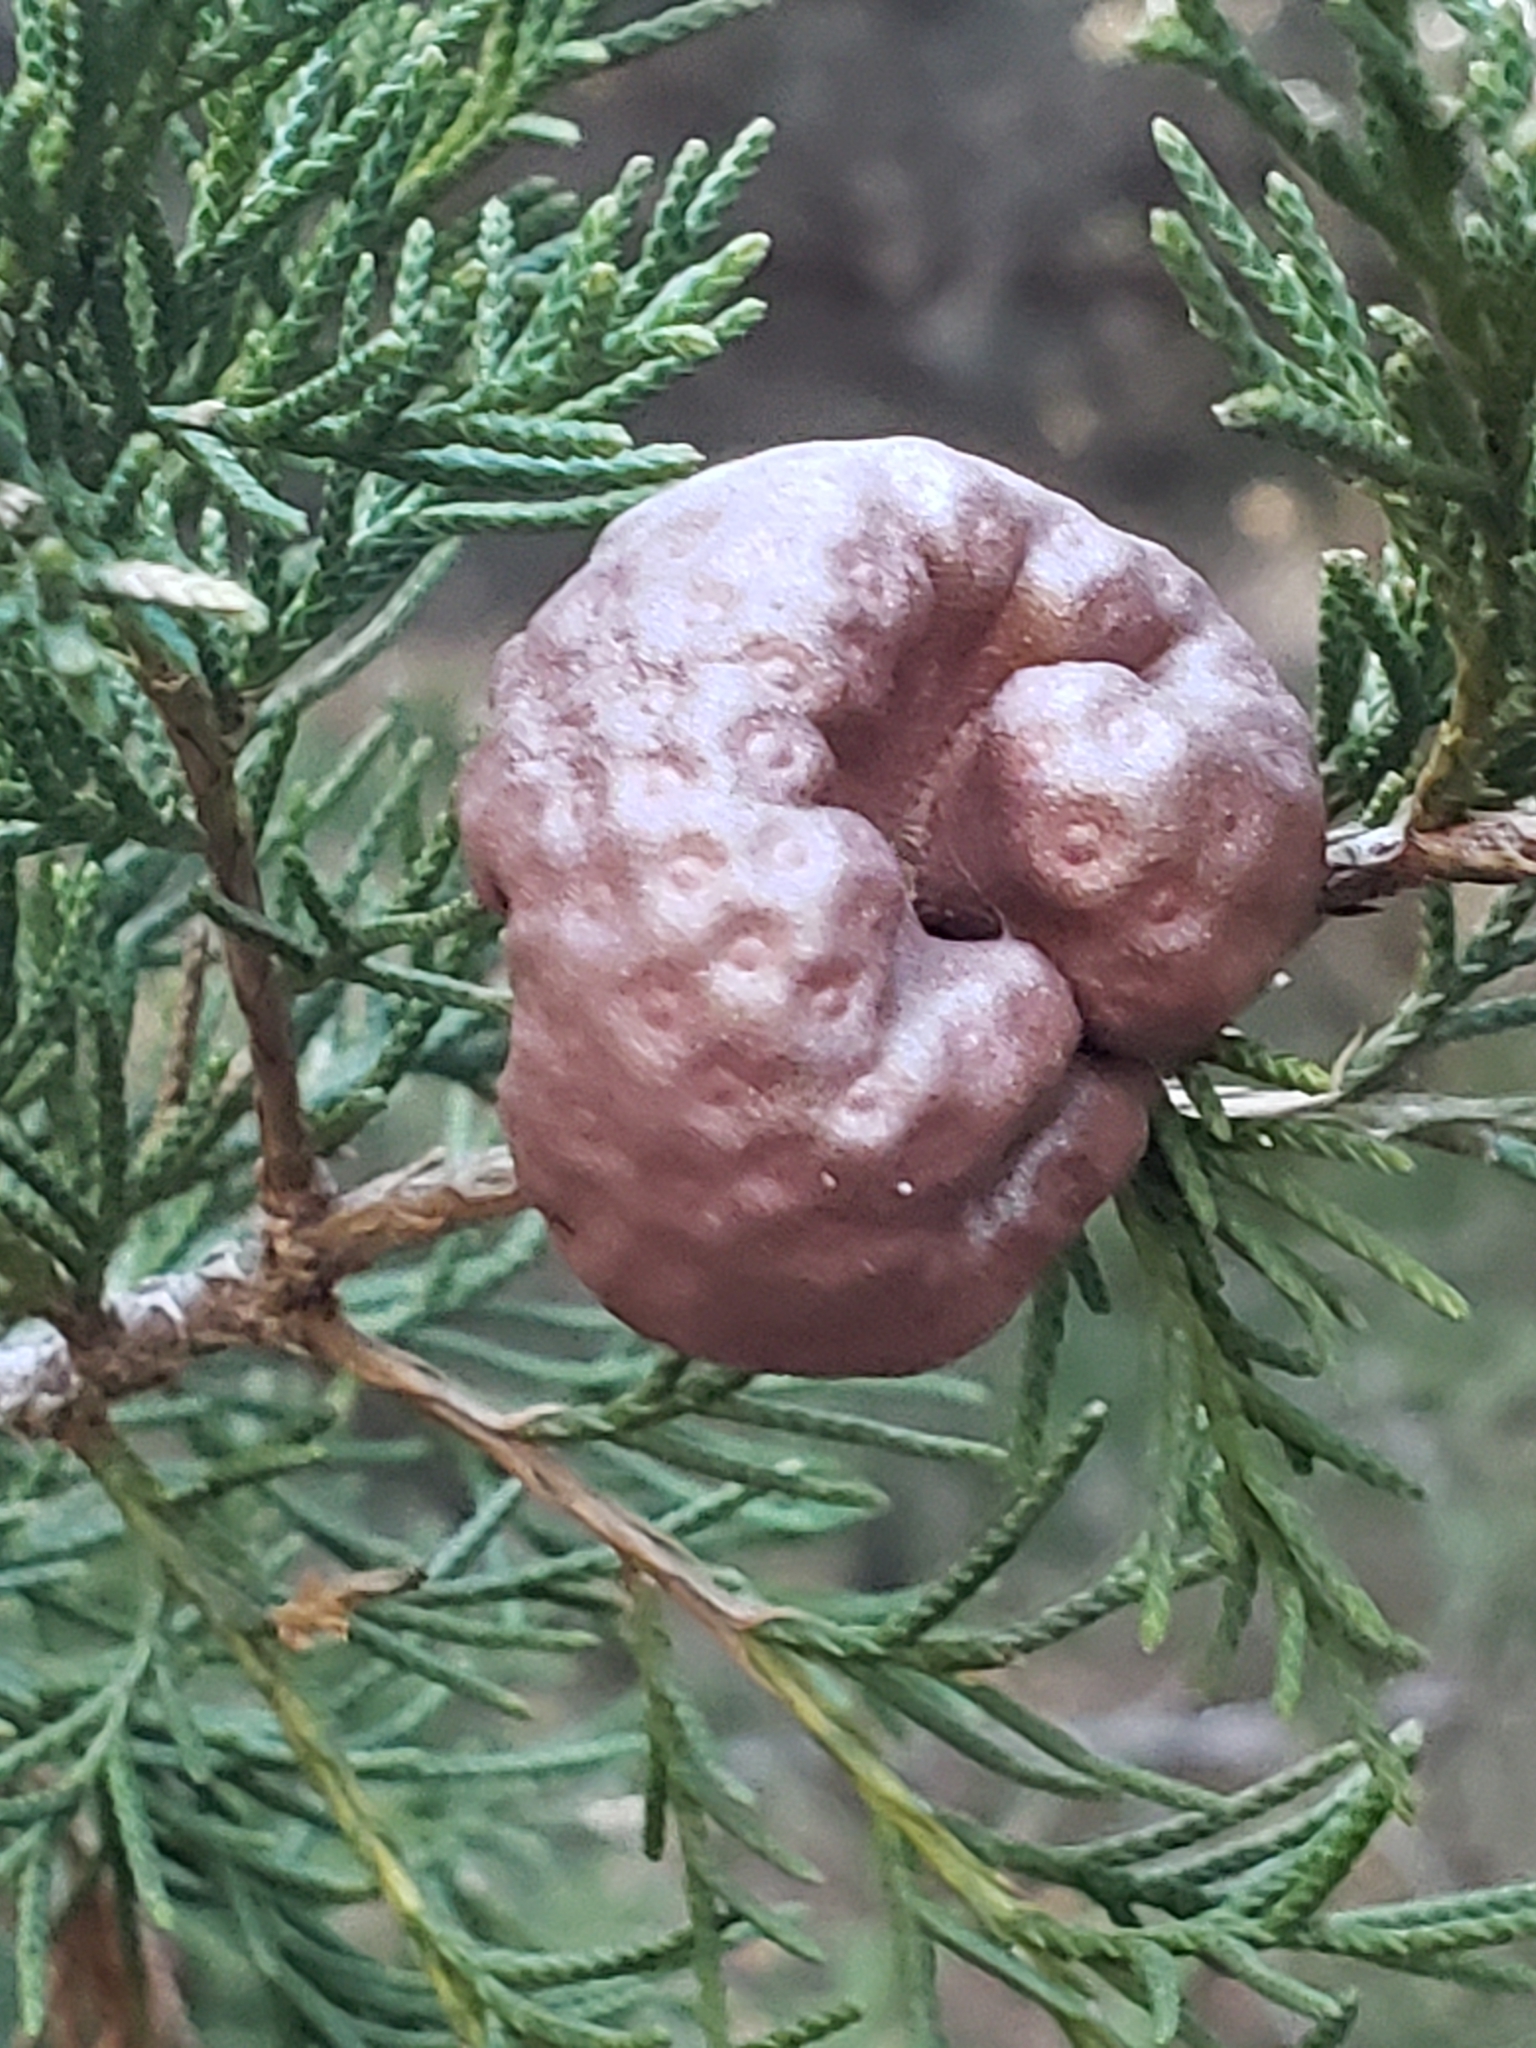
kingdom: Fungi
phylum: Basidiomycota
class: Pucciniomycetes
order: Pucciniales
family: Gymnosporangiaceae
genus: Gymnosporangium
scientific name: Gymnosporangium juniperi-virginianae
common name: Juniper-apple rust
